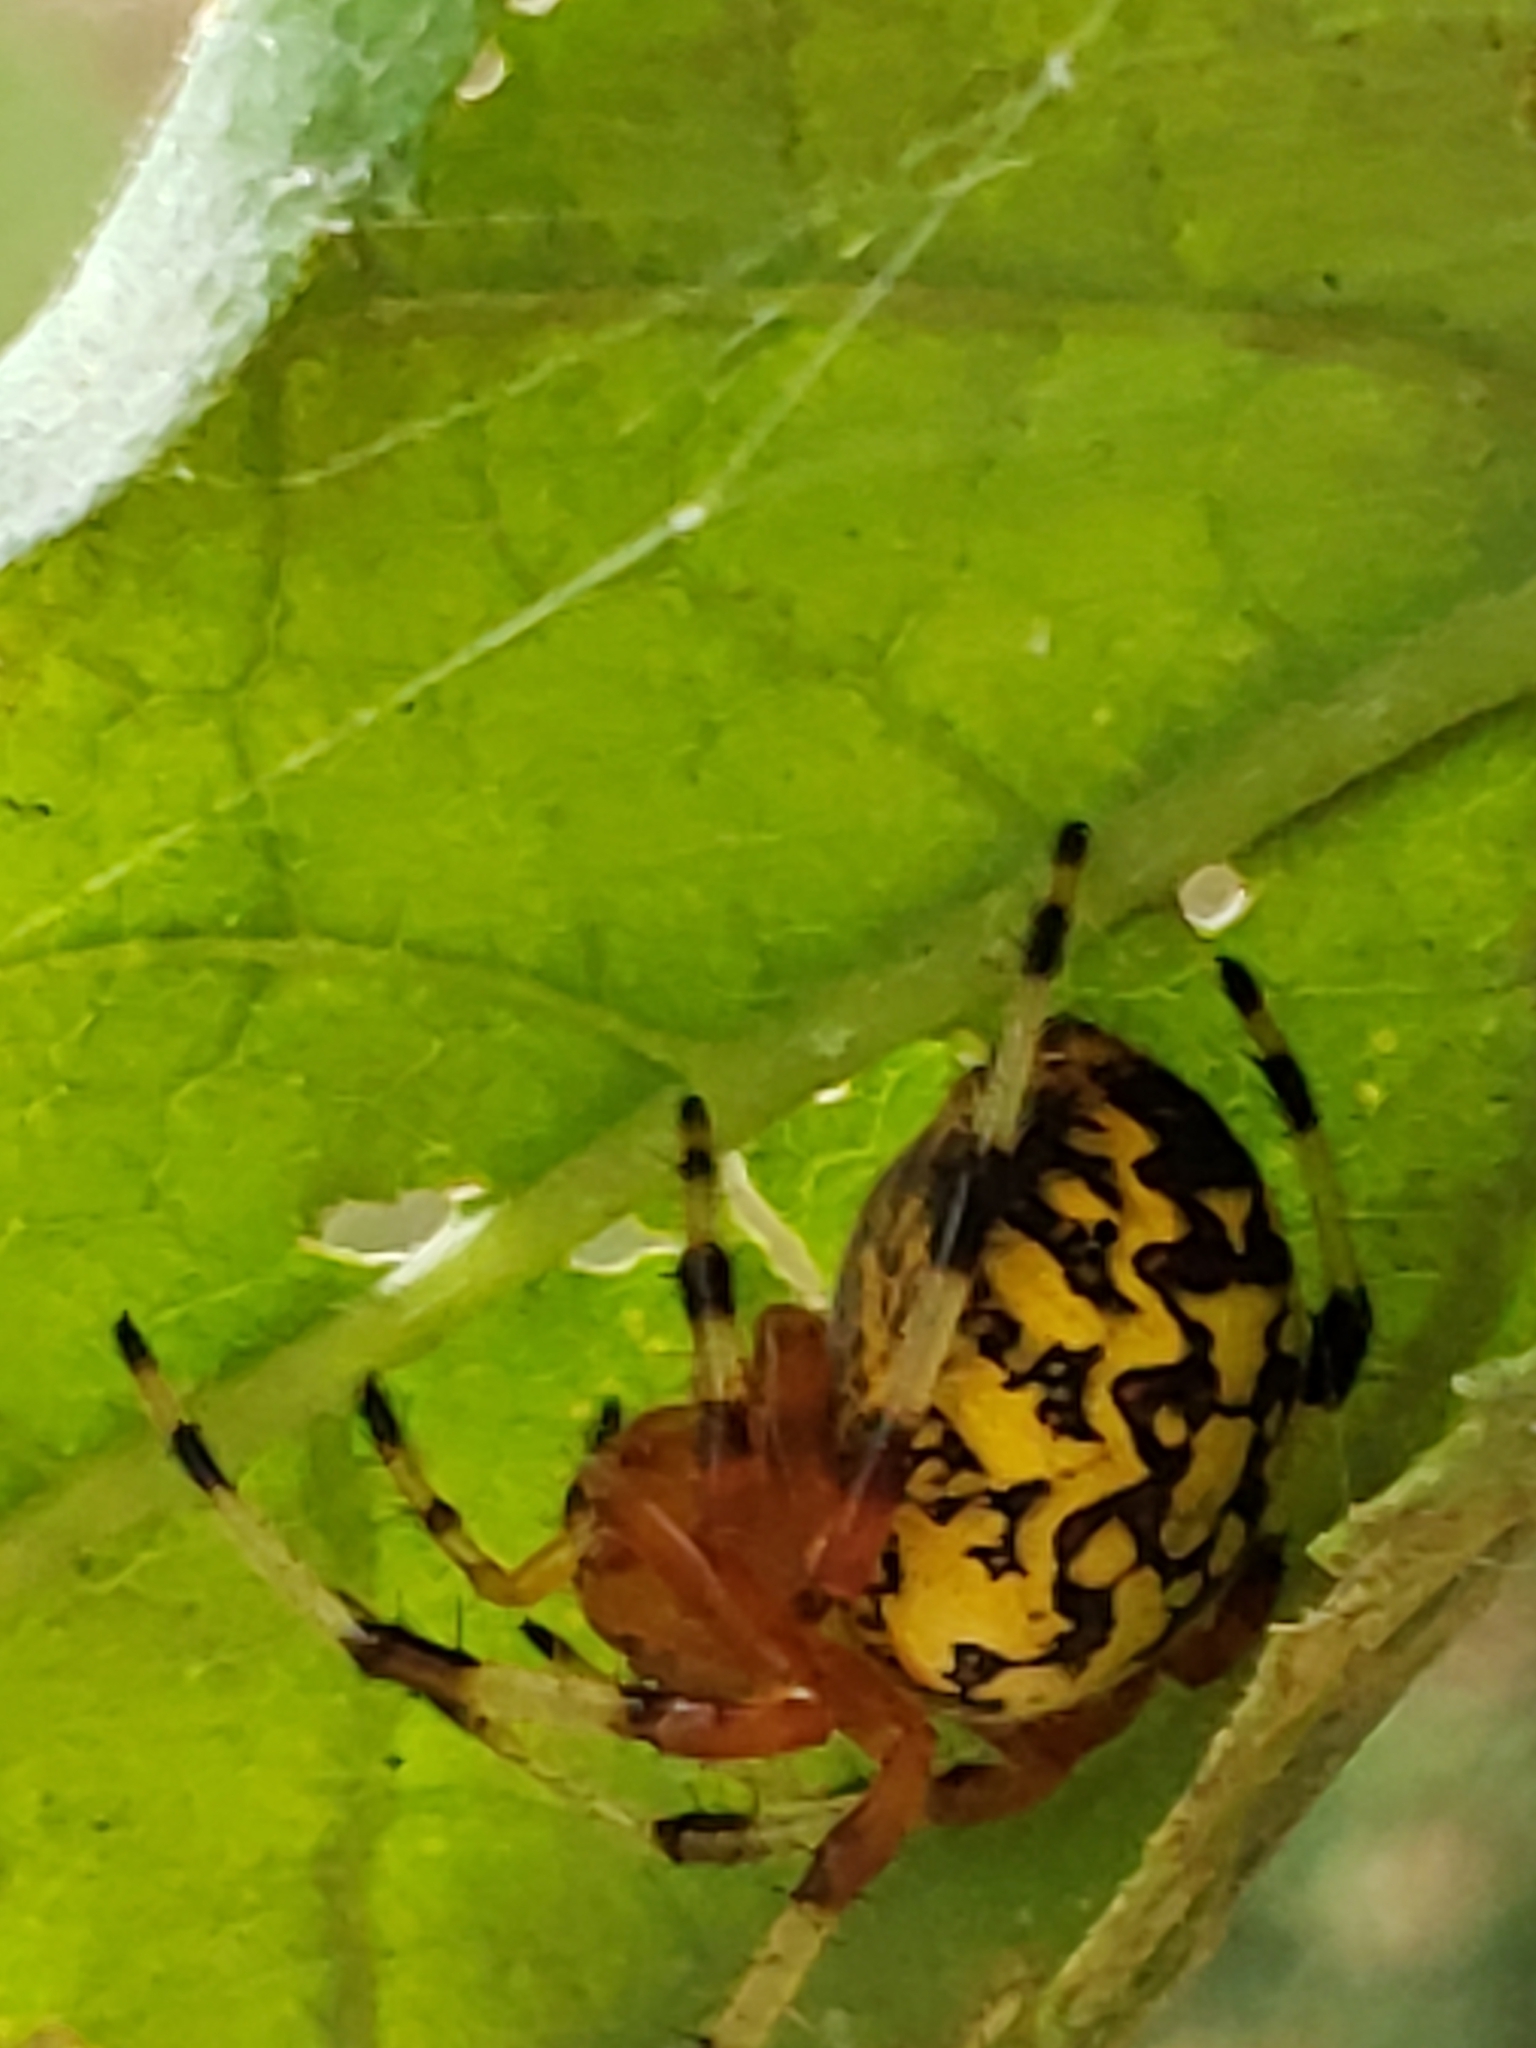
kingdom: Animalia
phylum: Arthropoda
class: Arachnida
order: Araneae
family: Araneidae
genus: Araneus
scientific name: Araneus marmoreus
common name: Marbled orbweaver
